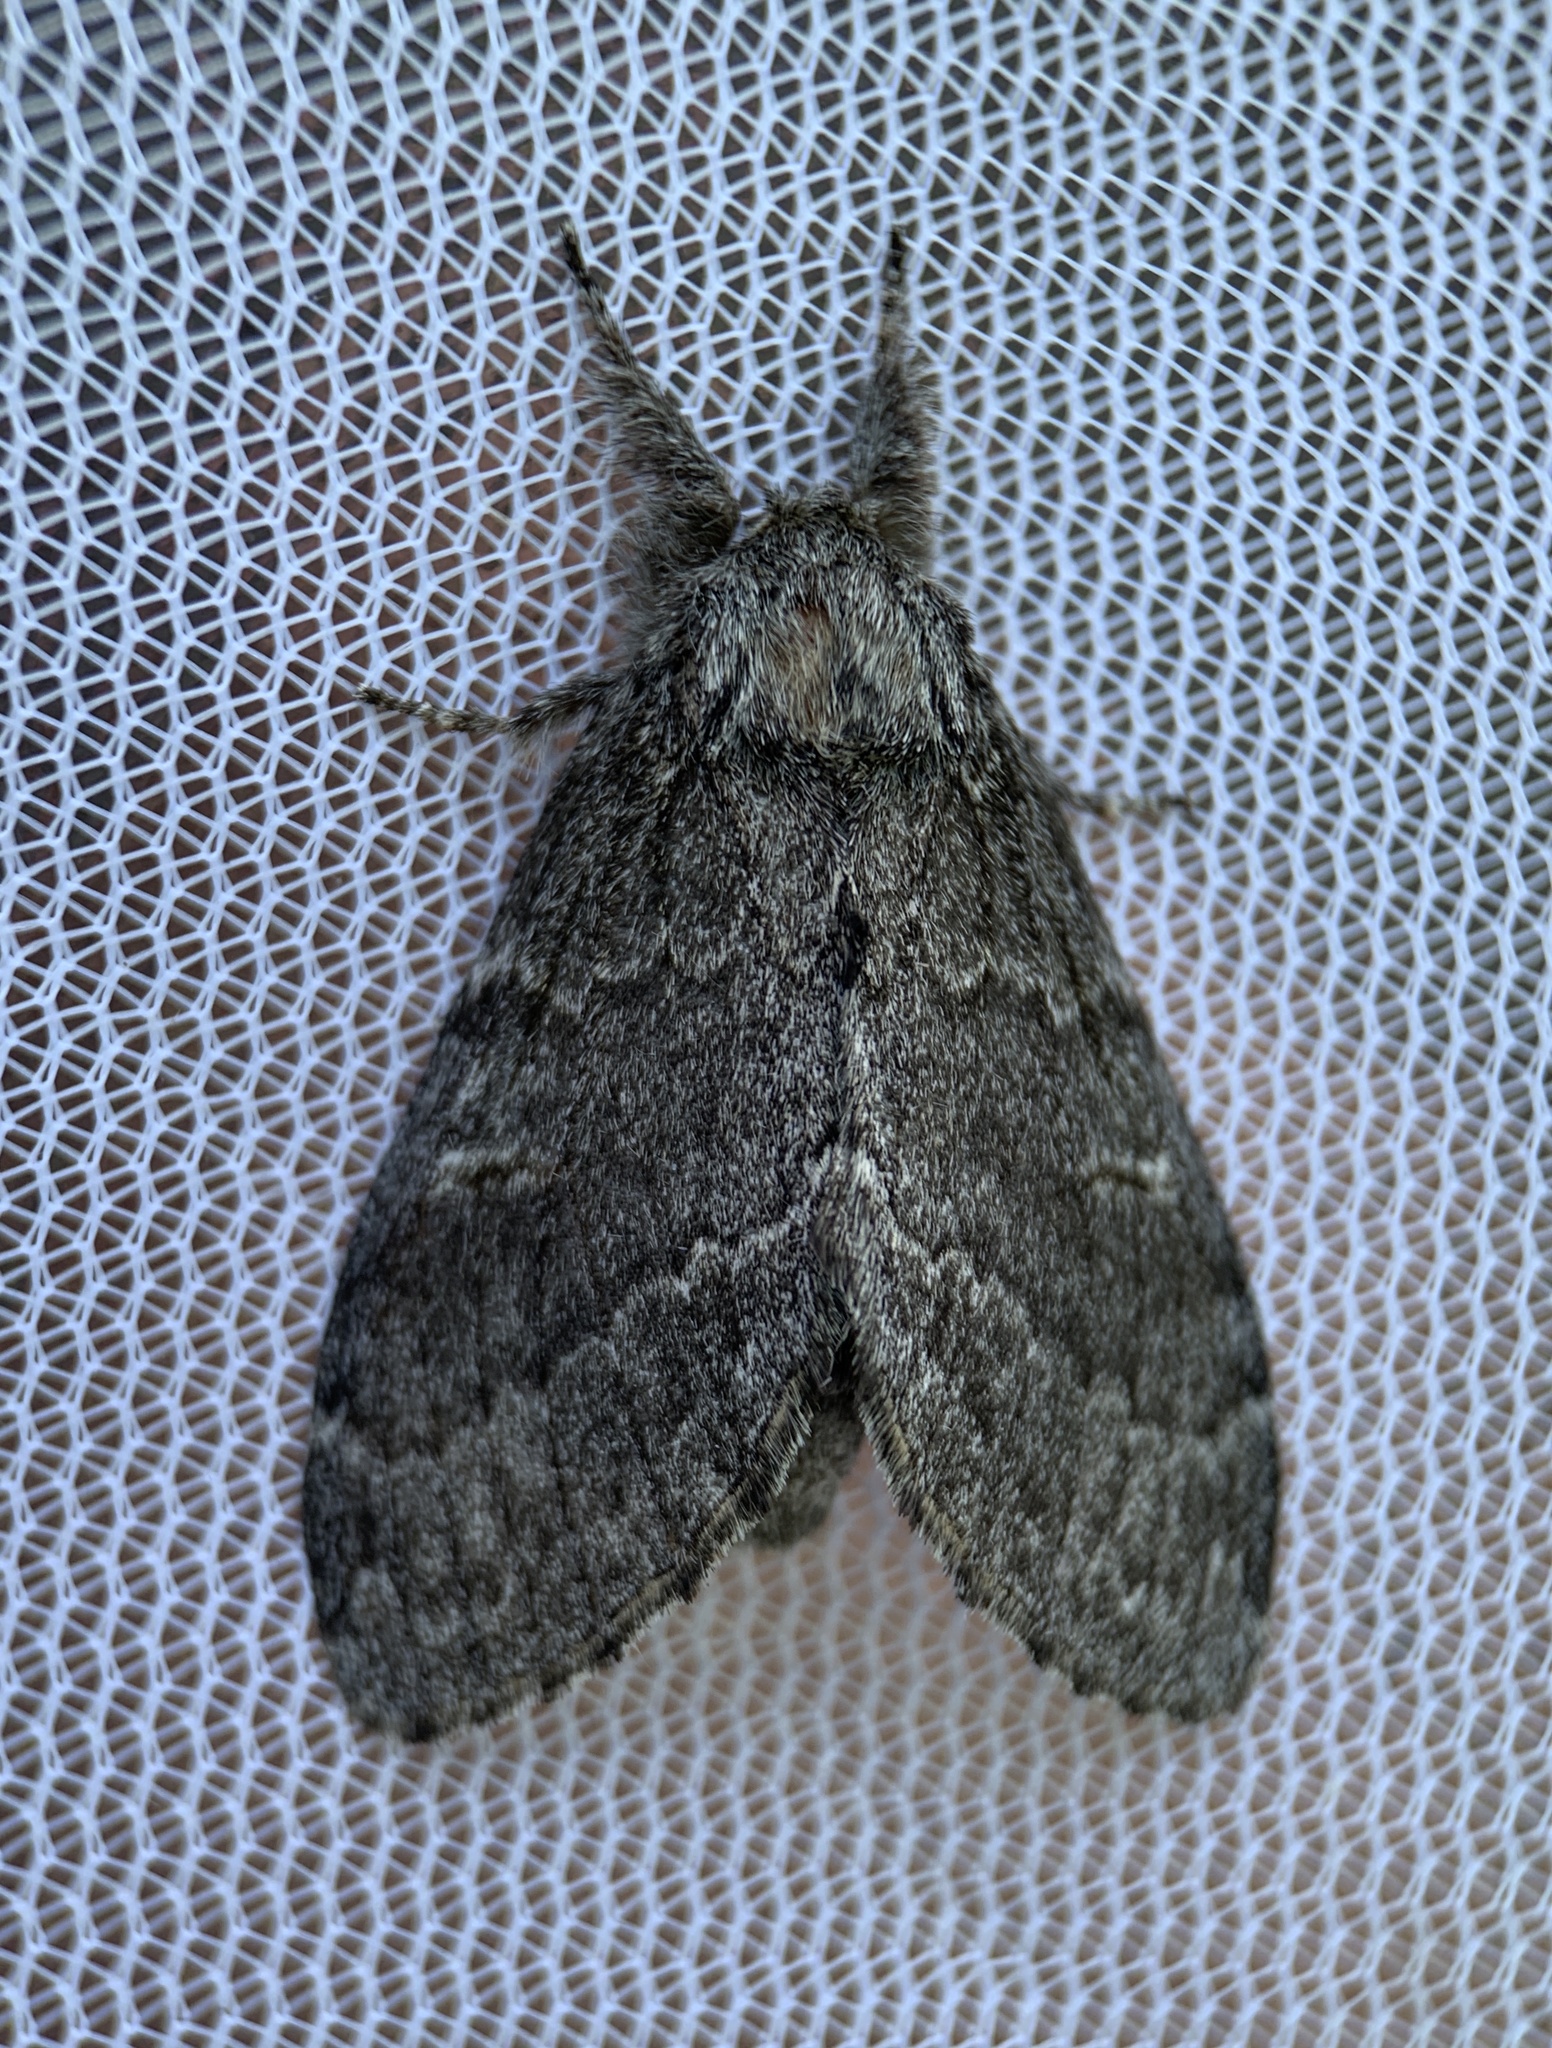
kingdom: Animalia
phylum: Arthropoda
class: Insecta
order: Lepidoptera
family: Notodontidae
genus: Notodonta
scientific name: Notodonta torva
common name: Large dark prominent
